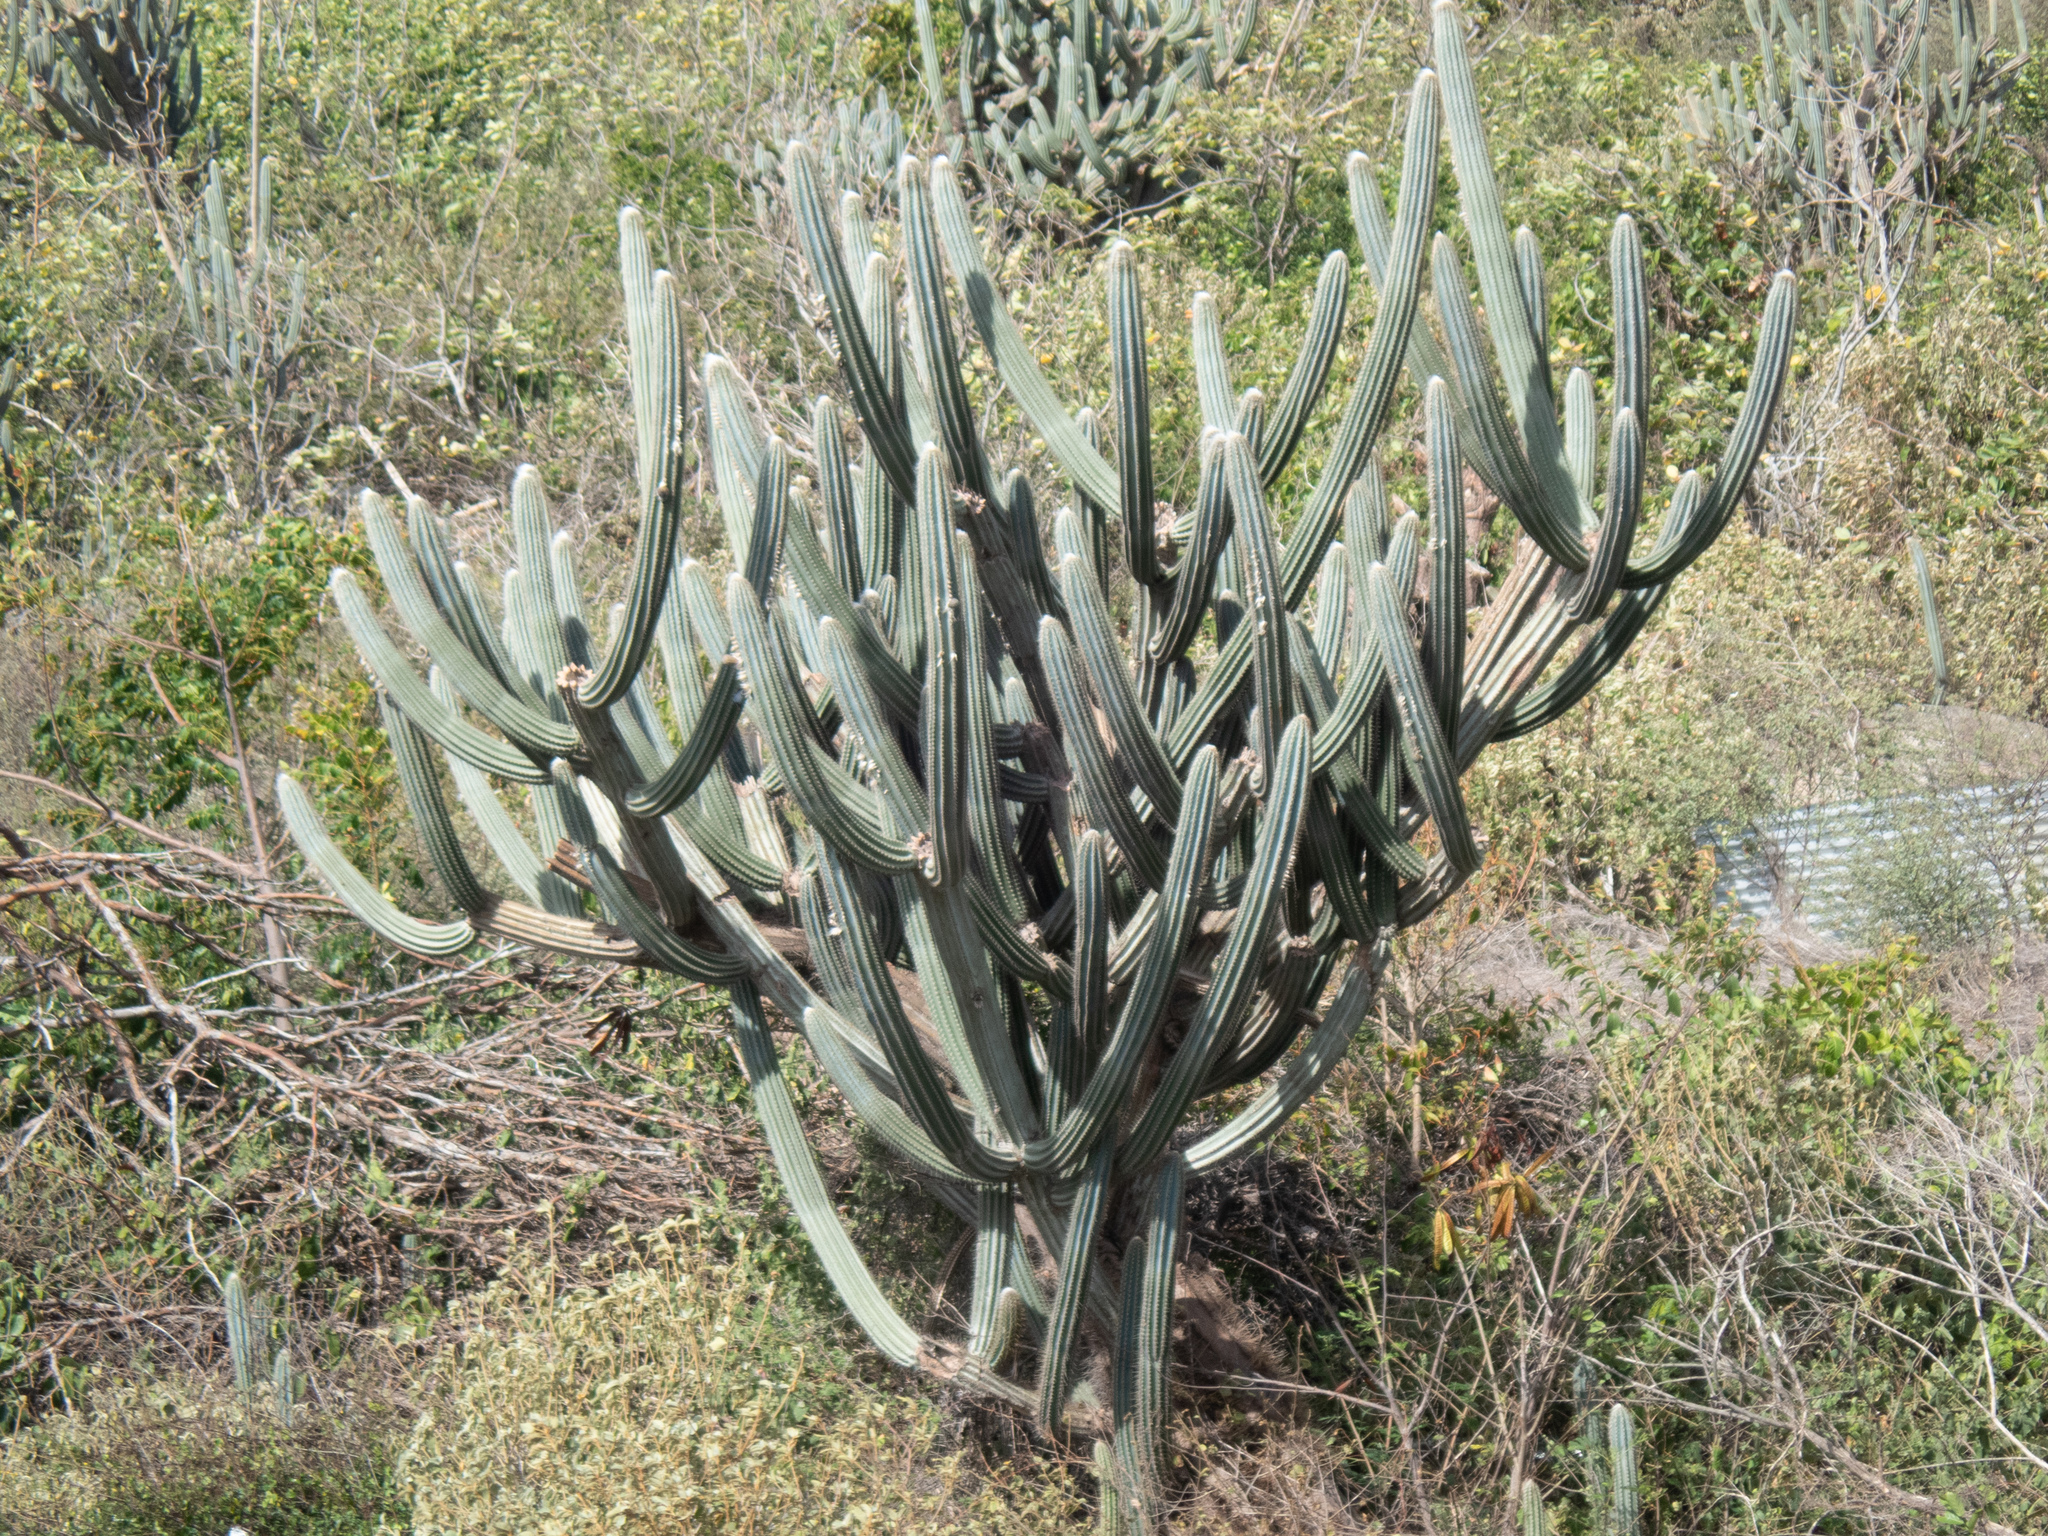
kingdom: Plantae
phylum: Tracheophyta
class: Magnoliopsida
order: Caryophyllales
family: Cactaceae
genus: Pilosocereus
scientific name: Pilosocereus armatus
